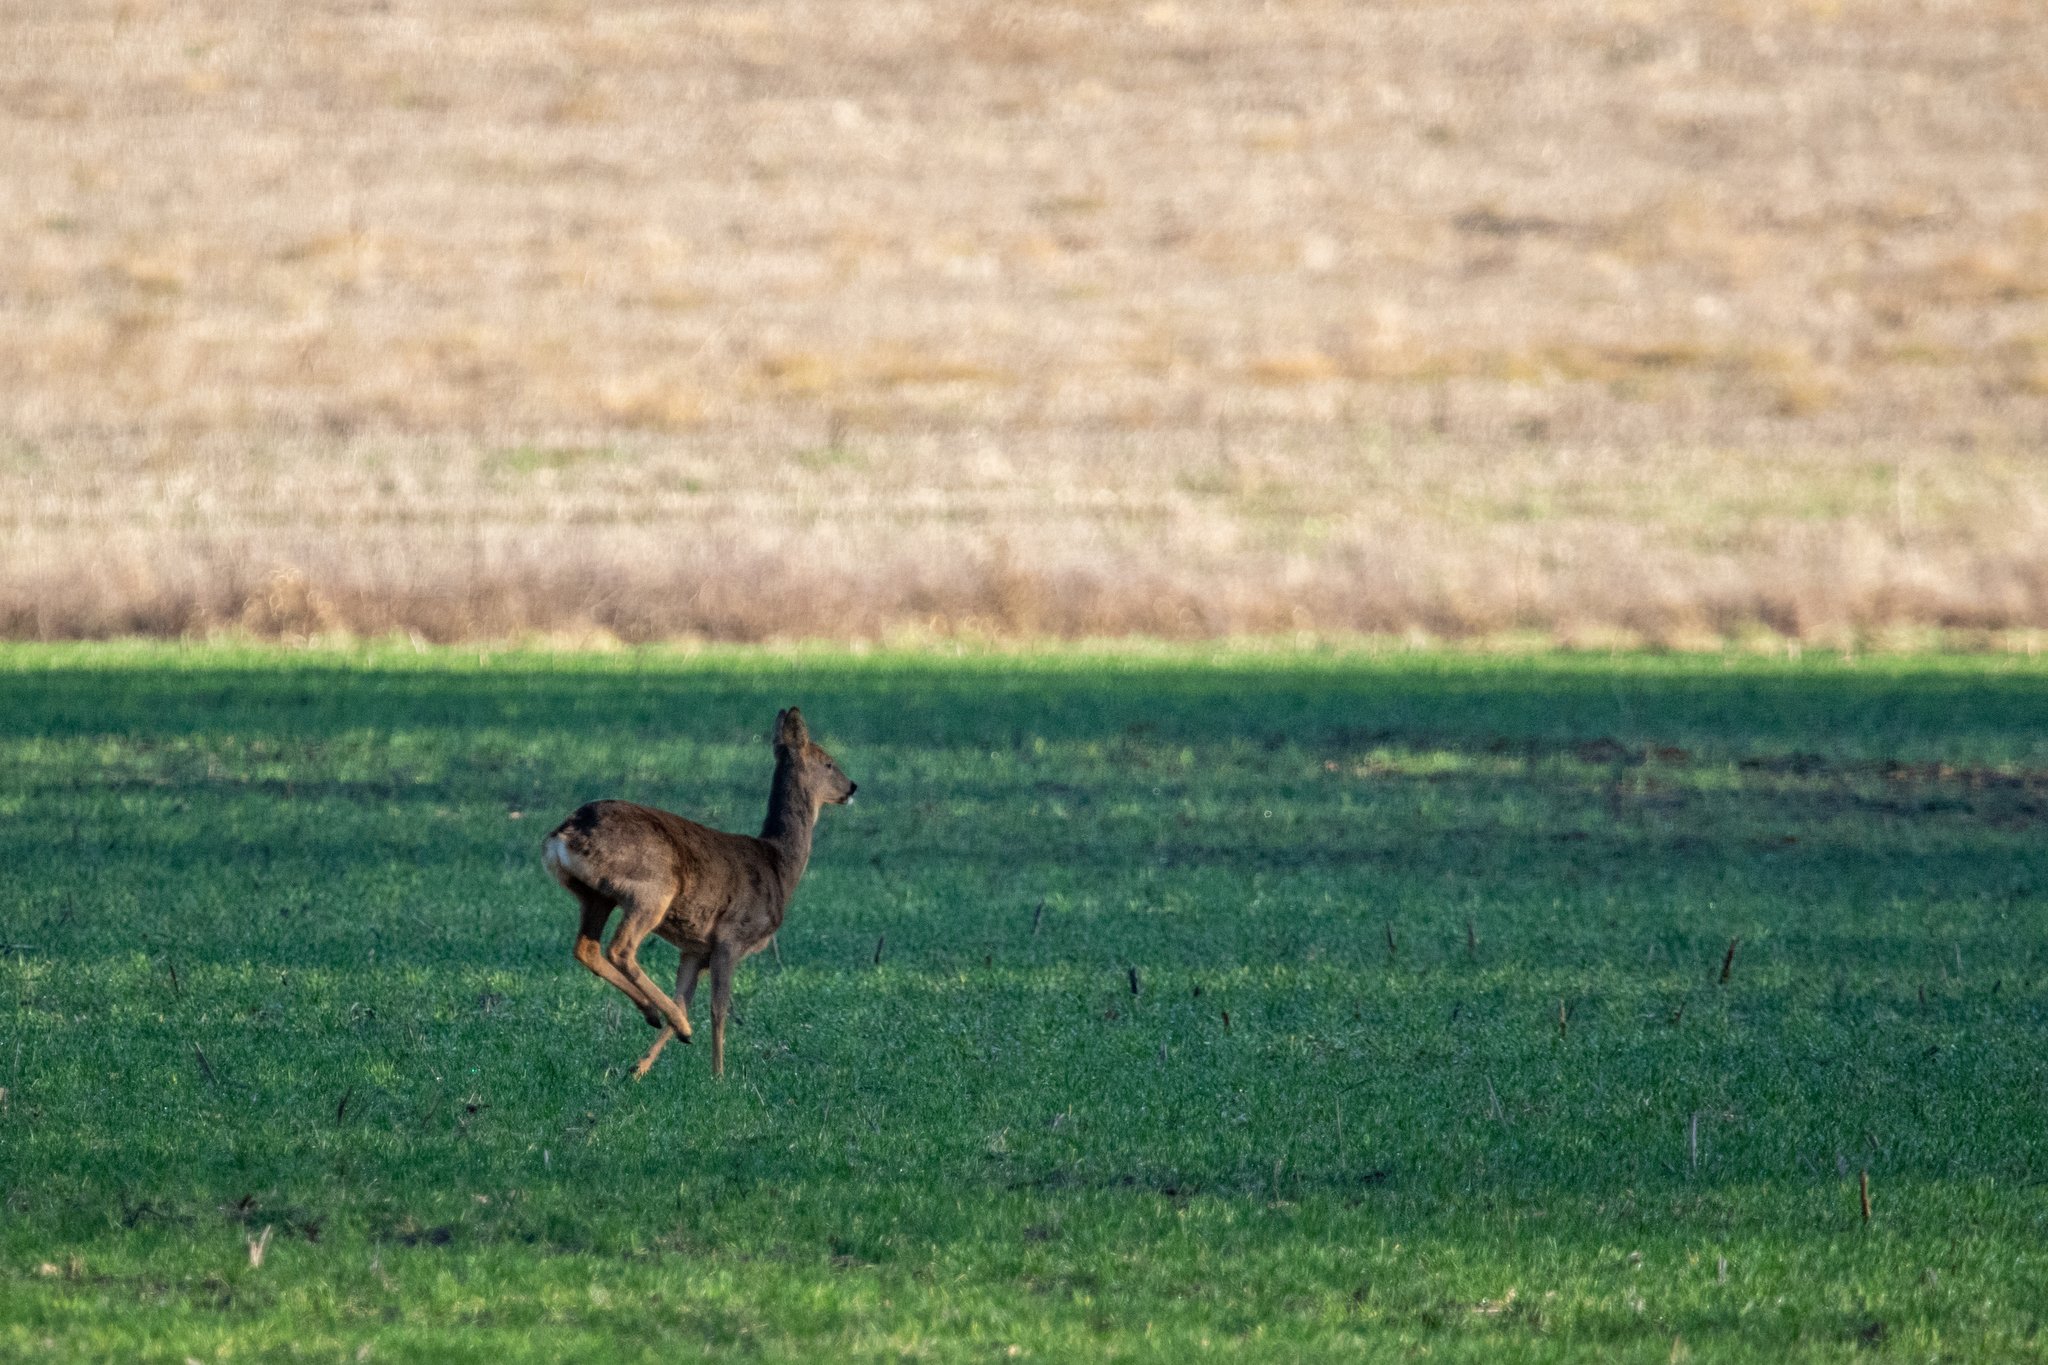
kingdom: Animalia
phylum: Chordata
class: Mammalia
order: Artiodactyla
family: Cervidae
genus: Capreolus
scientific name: Capreolus capreolus
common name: Western roe deer
